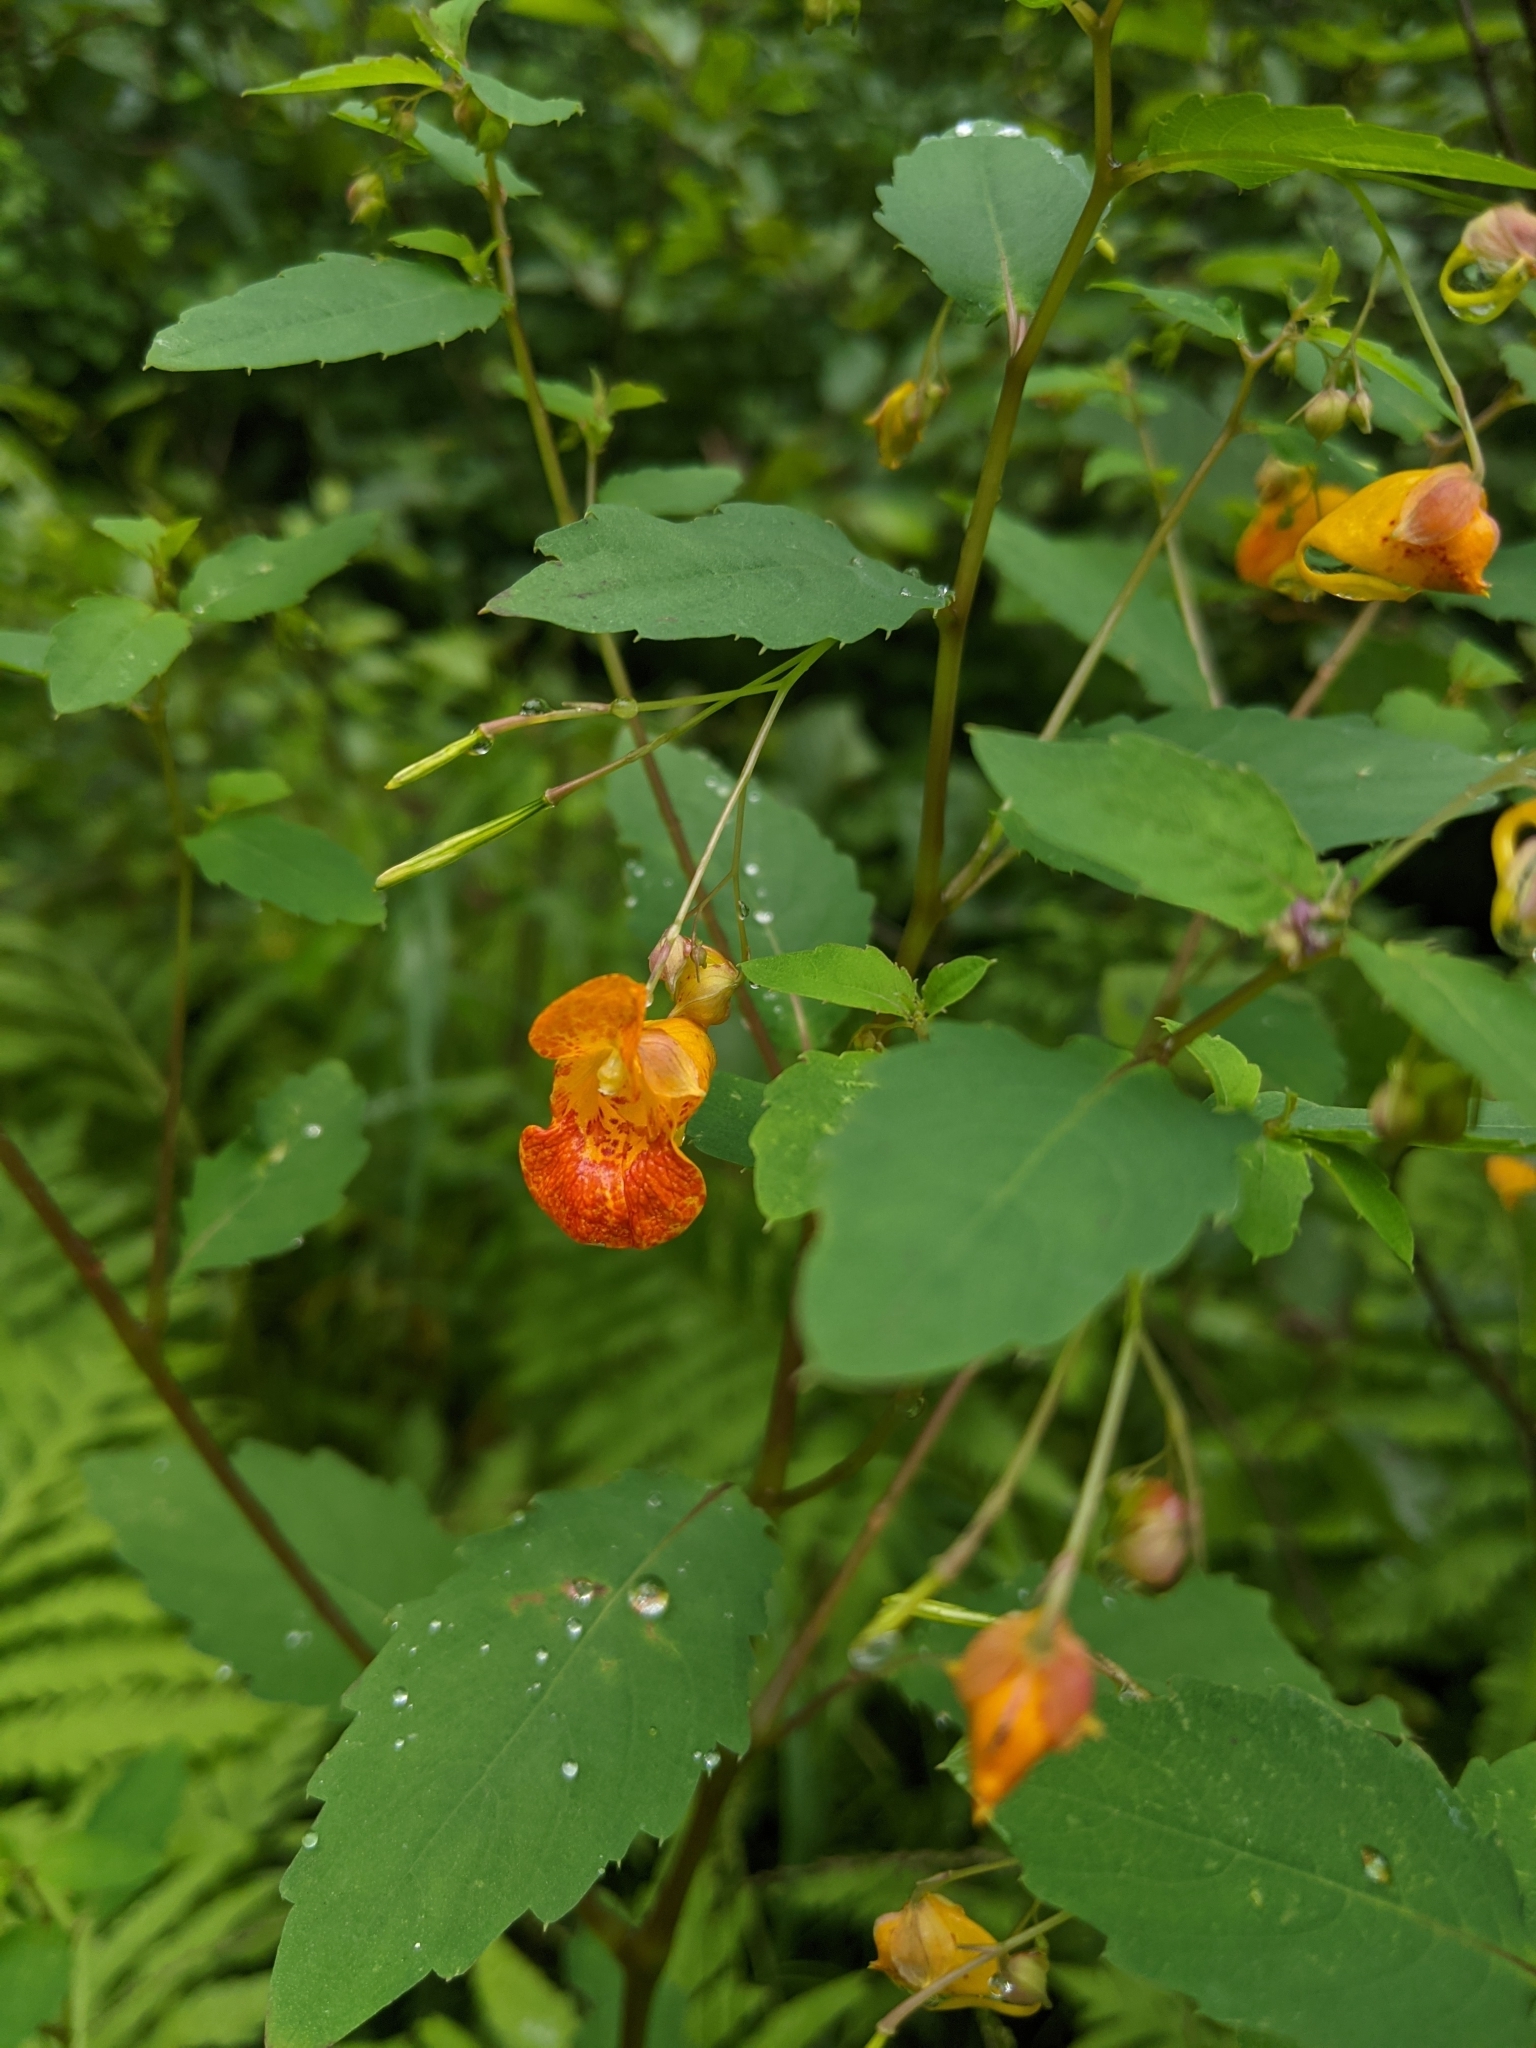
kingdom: Plantae
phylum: Tracheophyta
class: Magnoliopsida
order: Ericales
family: Balsaminaceae
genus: Impatiens
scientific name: Impatiens capensis
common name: Orange balsam
